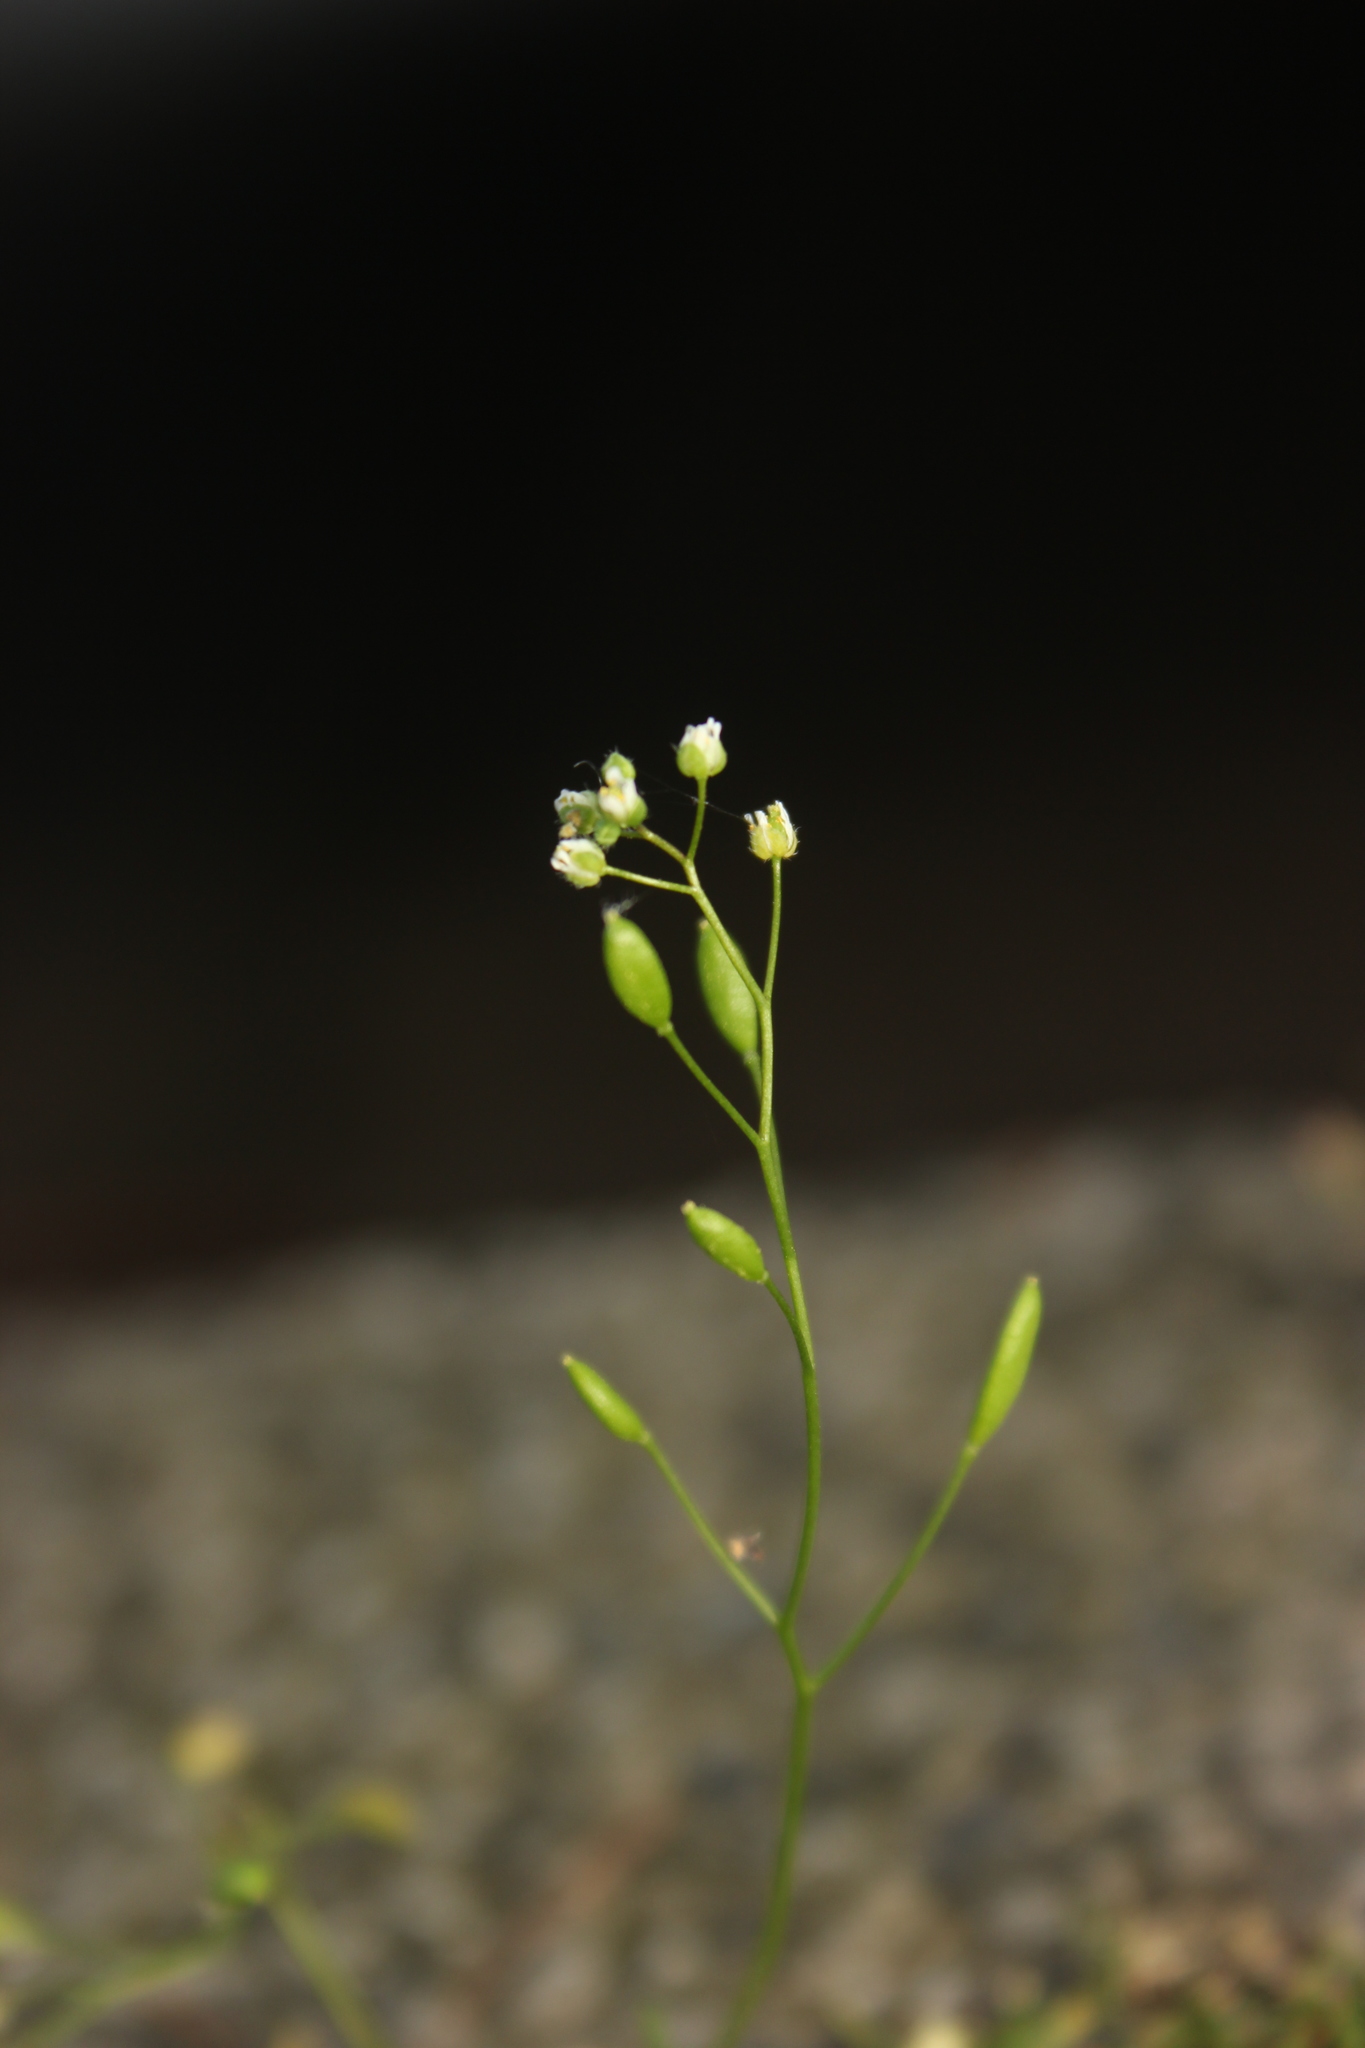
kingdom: Plantae
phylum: Tracheophyta
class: Magnoliopsida
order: Brassicales
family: Brassicaceae
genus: Draba
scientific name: Draba verna
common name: Spring draba
